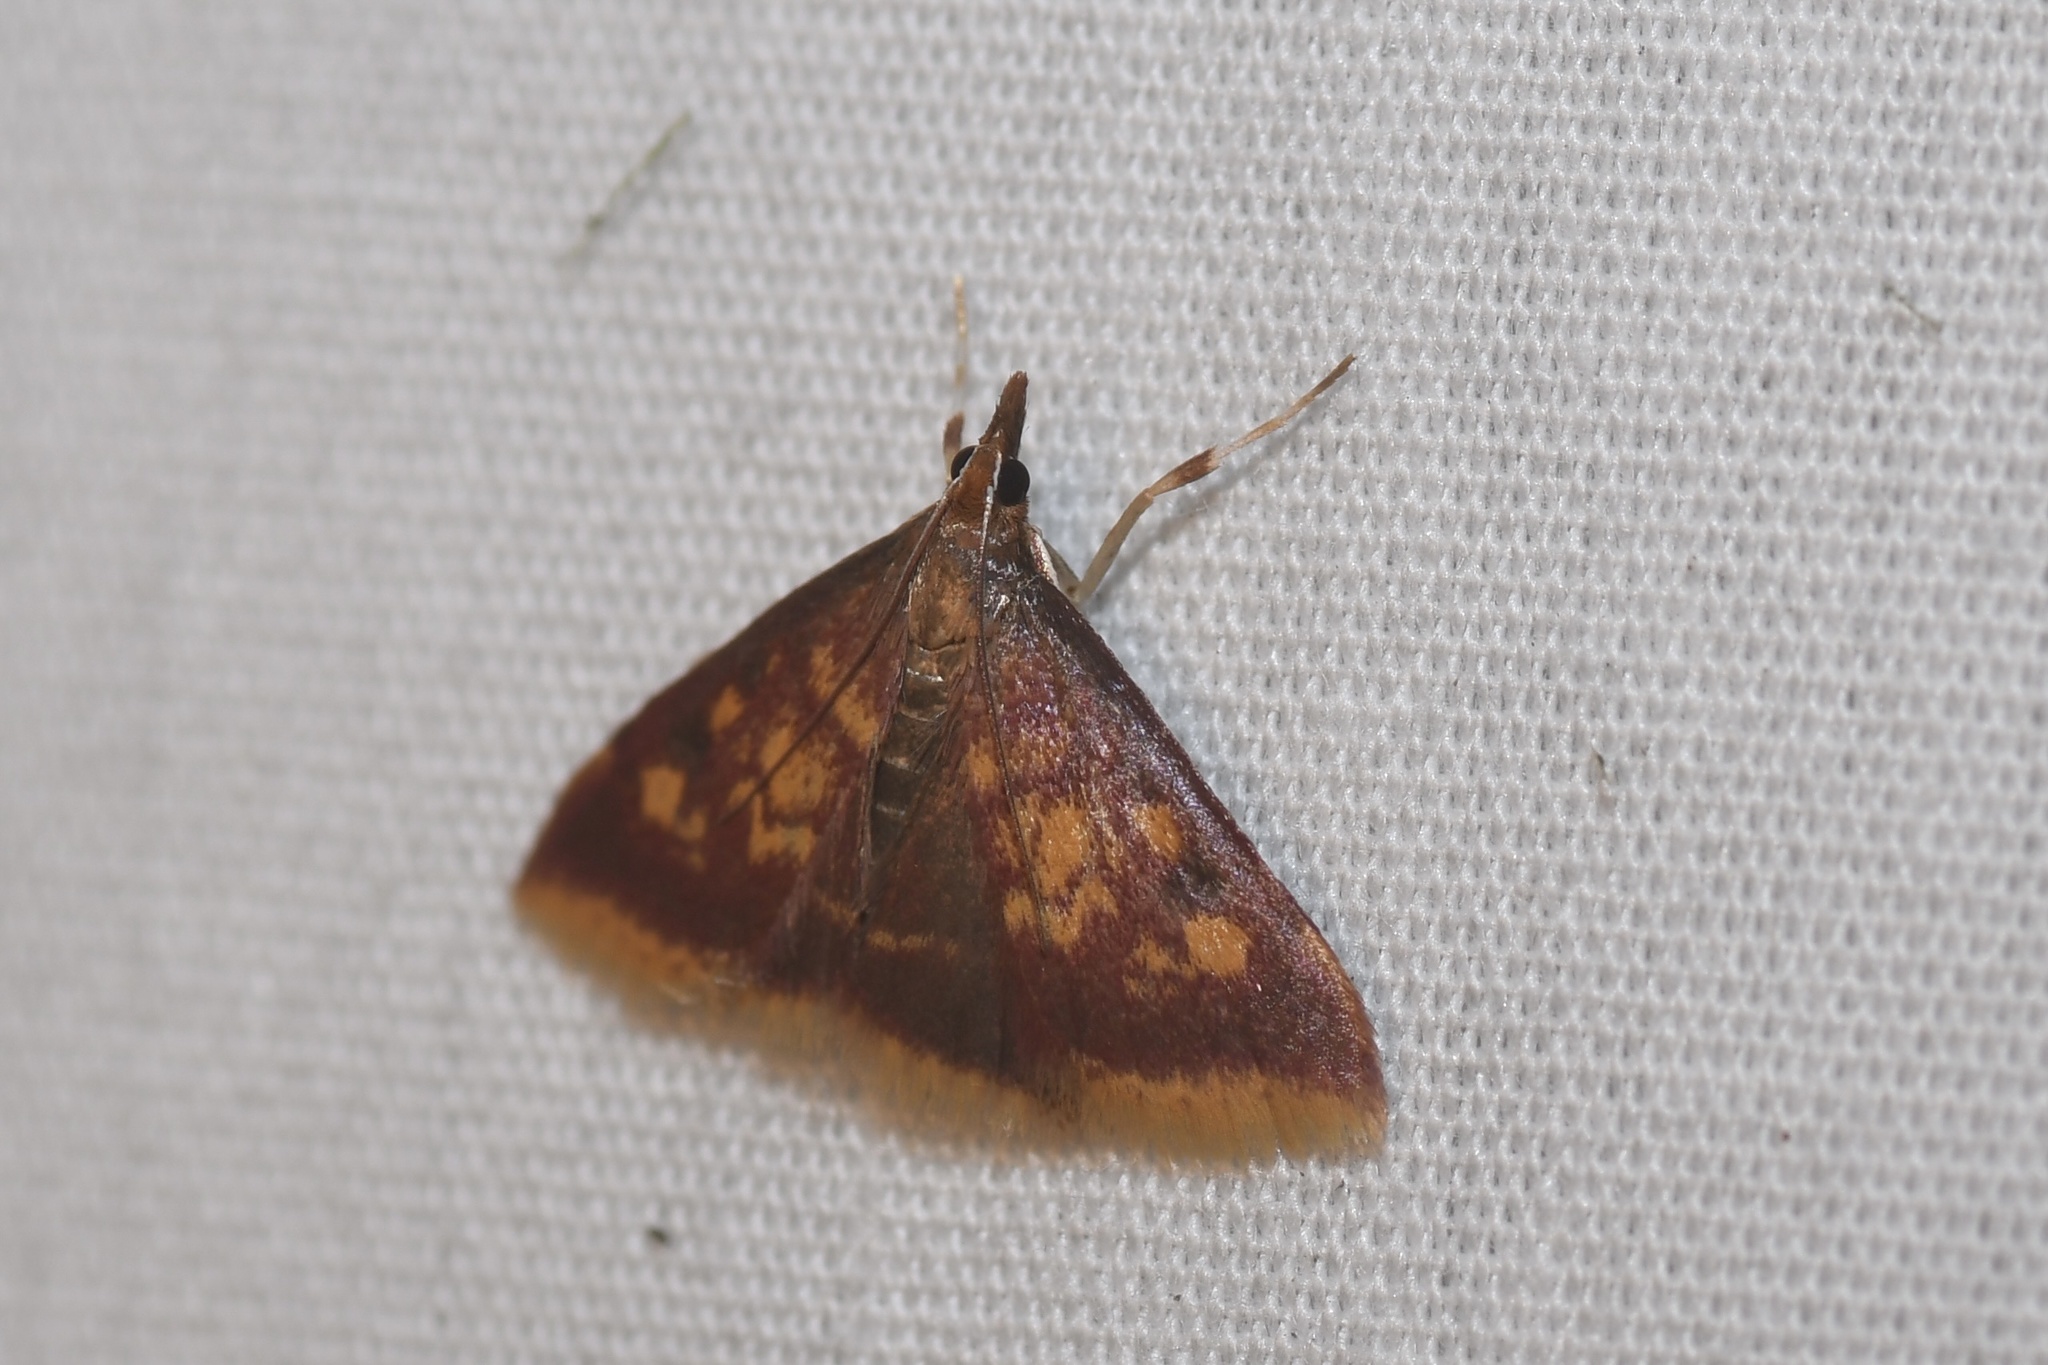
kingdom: Animalia
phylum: Arthropoda
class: Insecta
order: Lepidoptera
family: Crambidae
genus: Pyrausta
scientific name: Pyrausta acrionalis
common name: Mint-loving pyrausta moth
